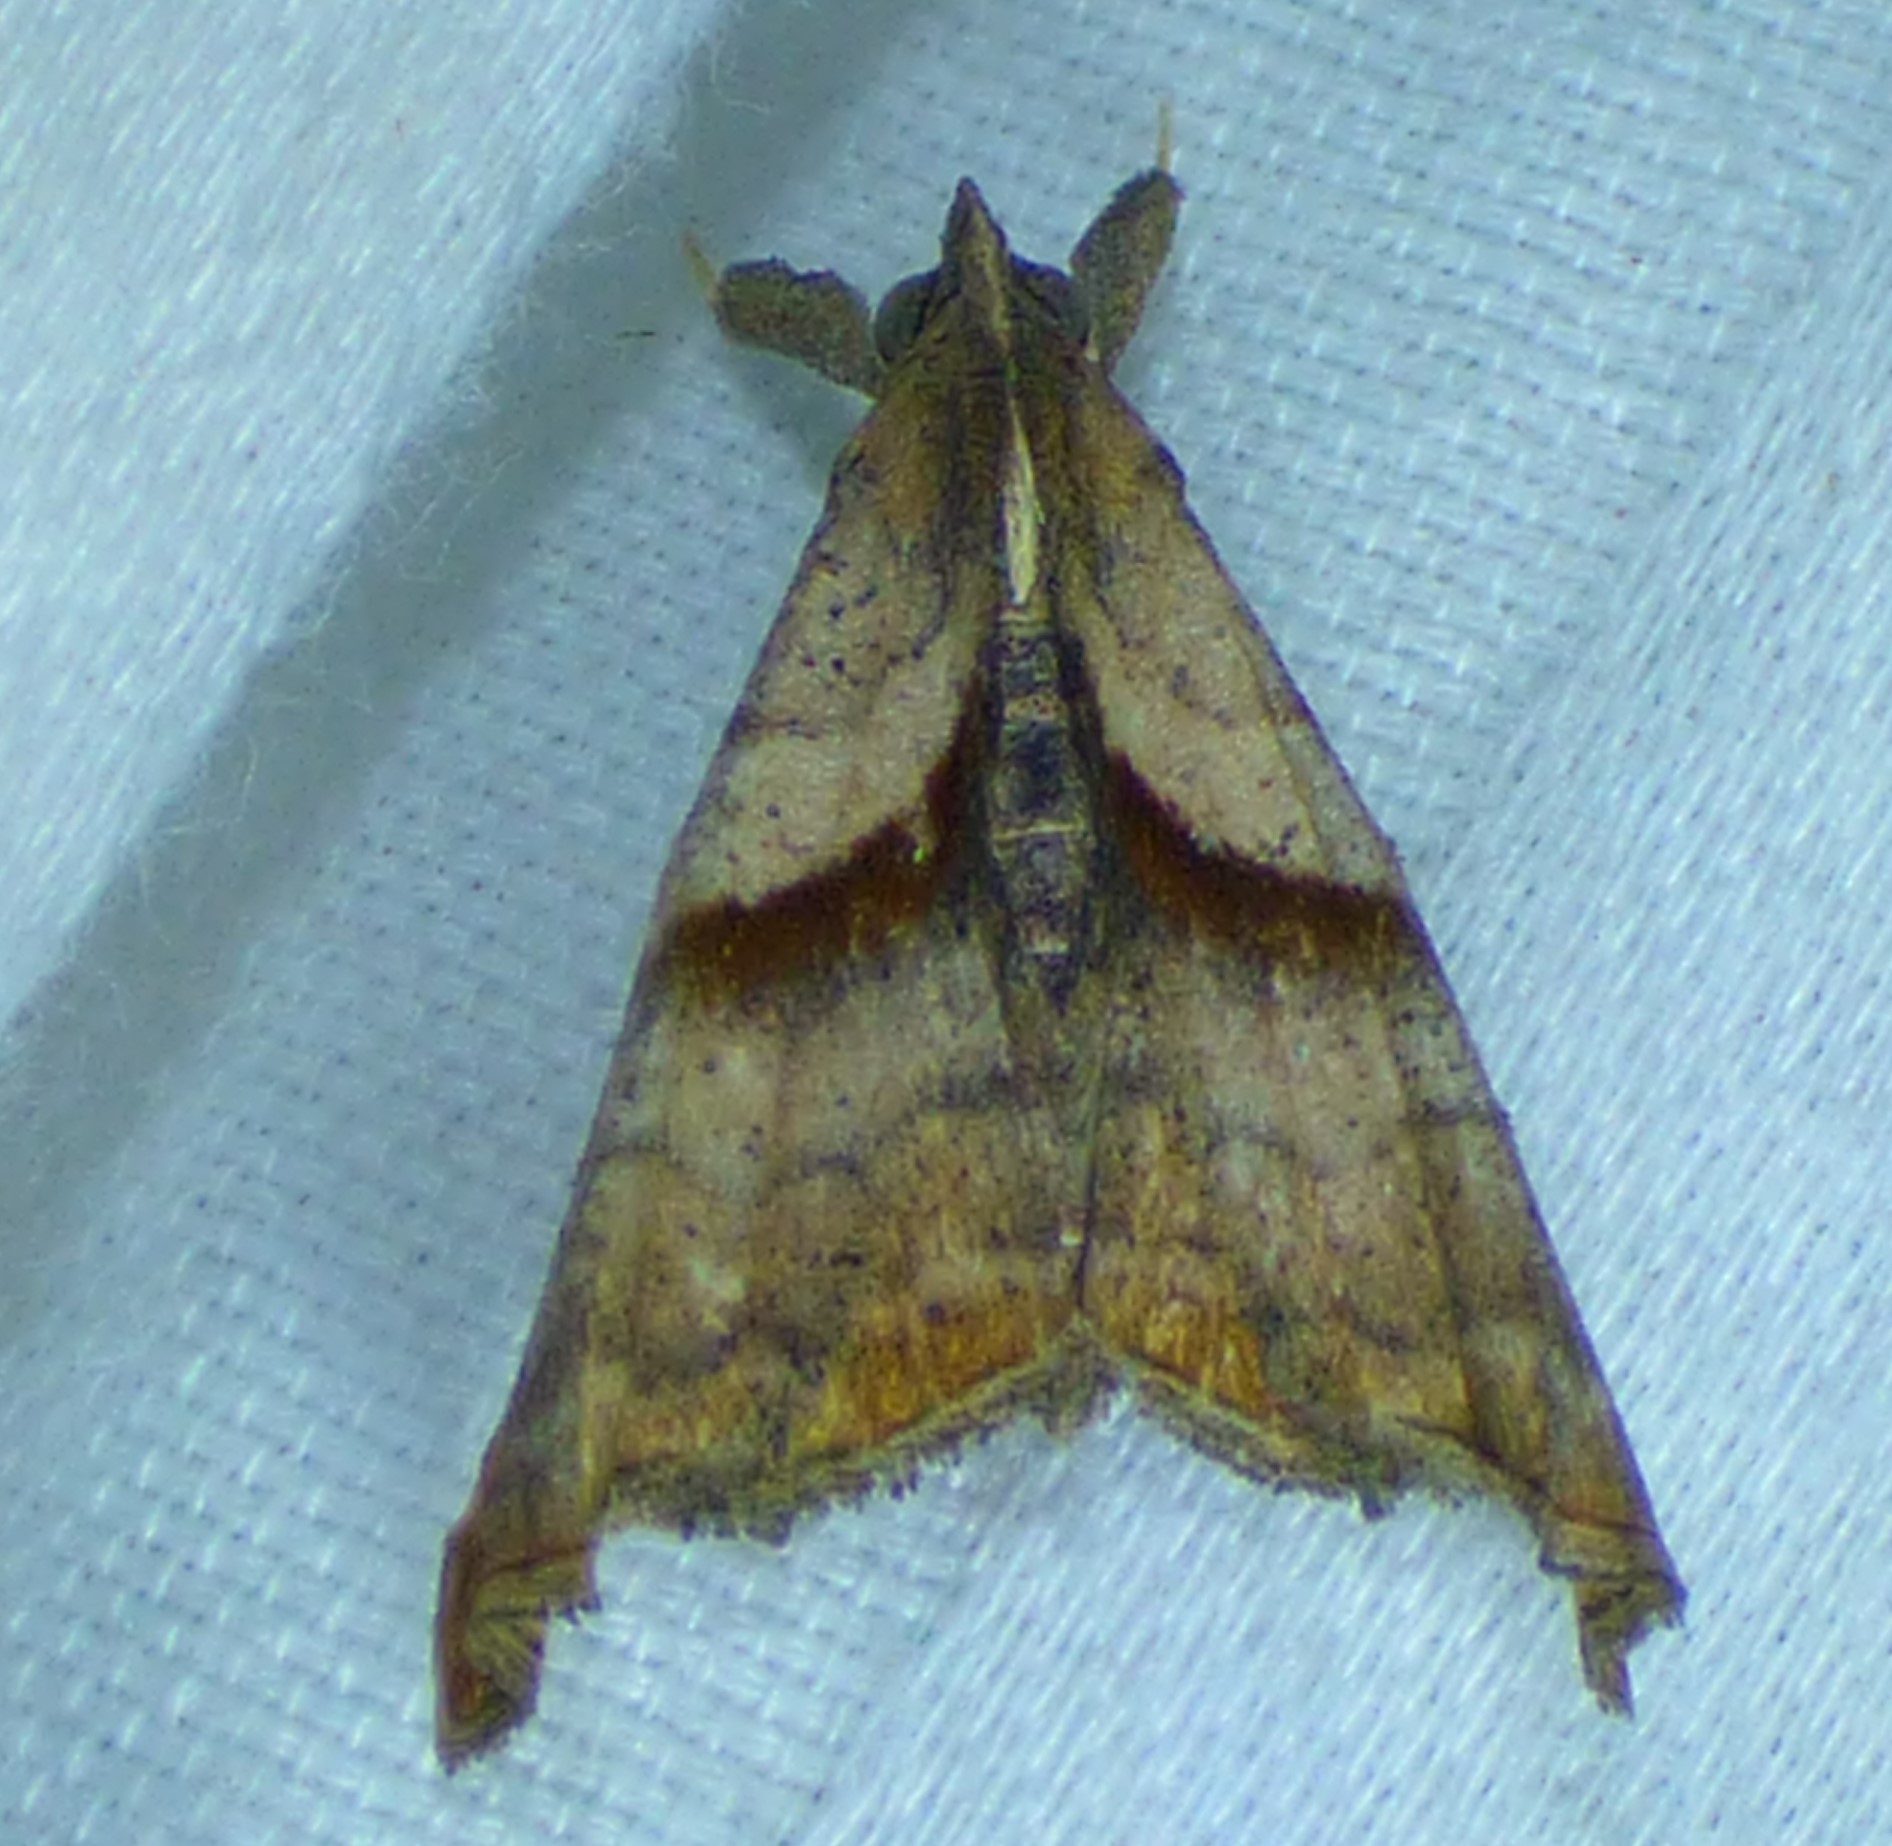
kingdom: Animalia
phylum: Arthropoda
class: Insecta
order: Lepidoptera
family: Erebidae
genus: Palthis
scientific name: Palthis angulalis
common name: Dark-spotted palthis moth
